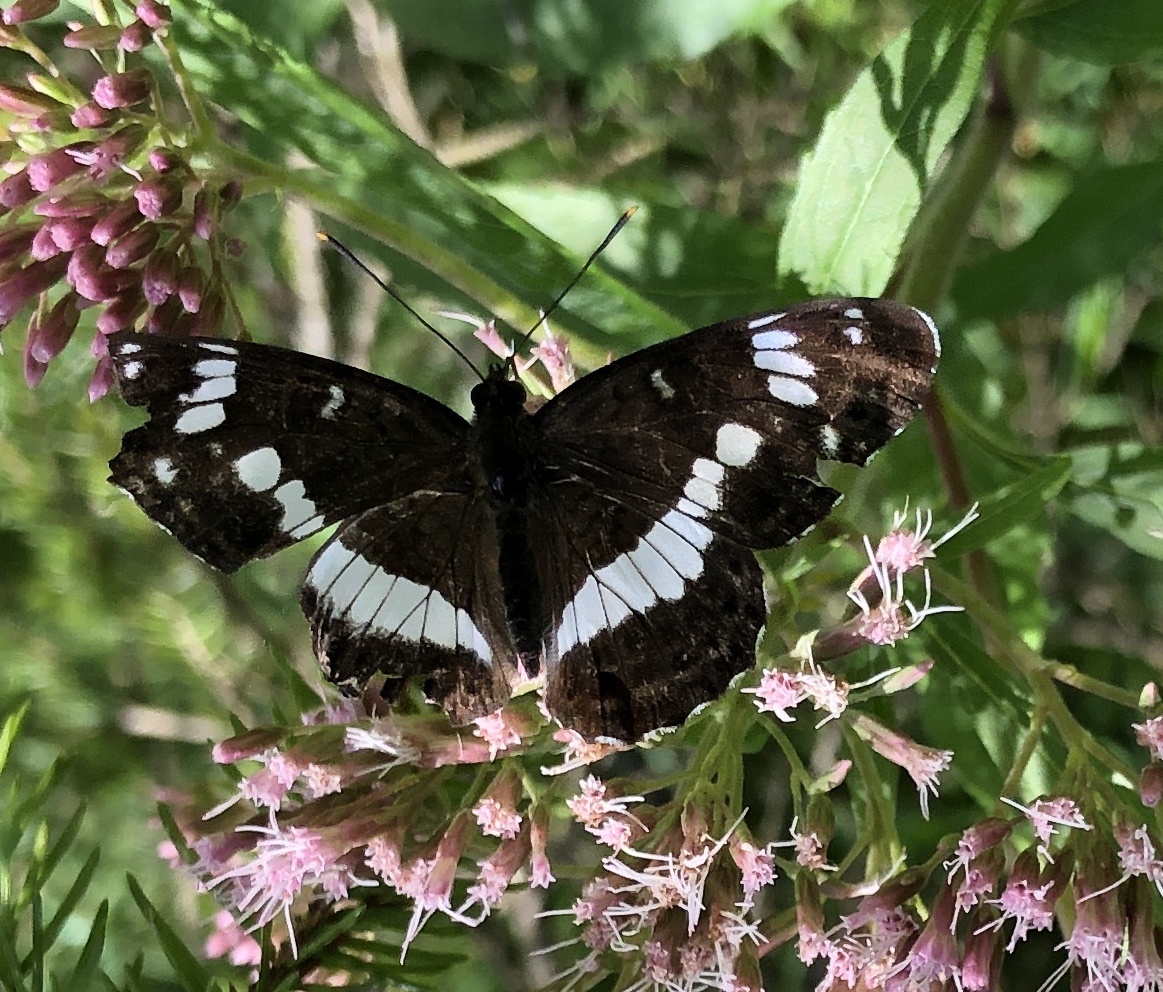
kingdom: Animalia
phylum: Arthropoda
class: Insecta
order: Lepidoptera
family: Nymphalidae
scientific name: Nymphalidae
